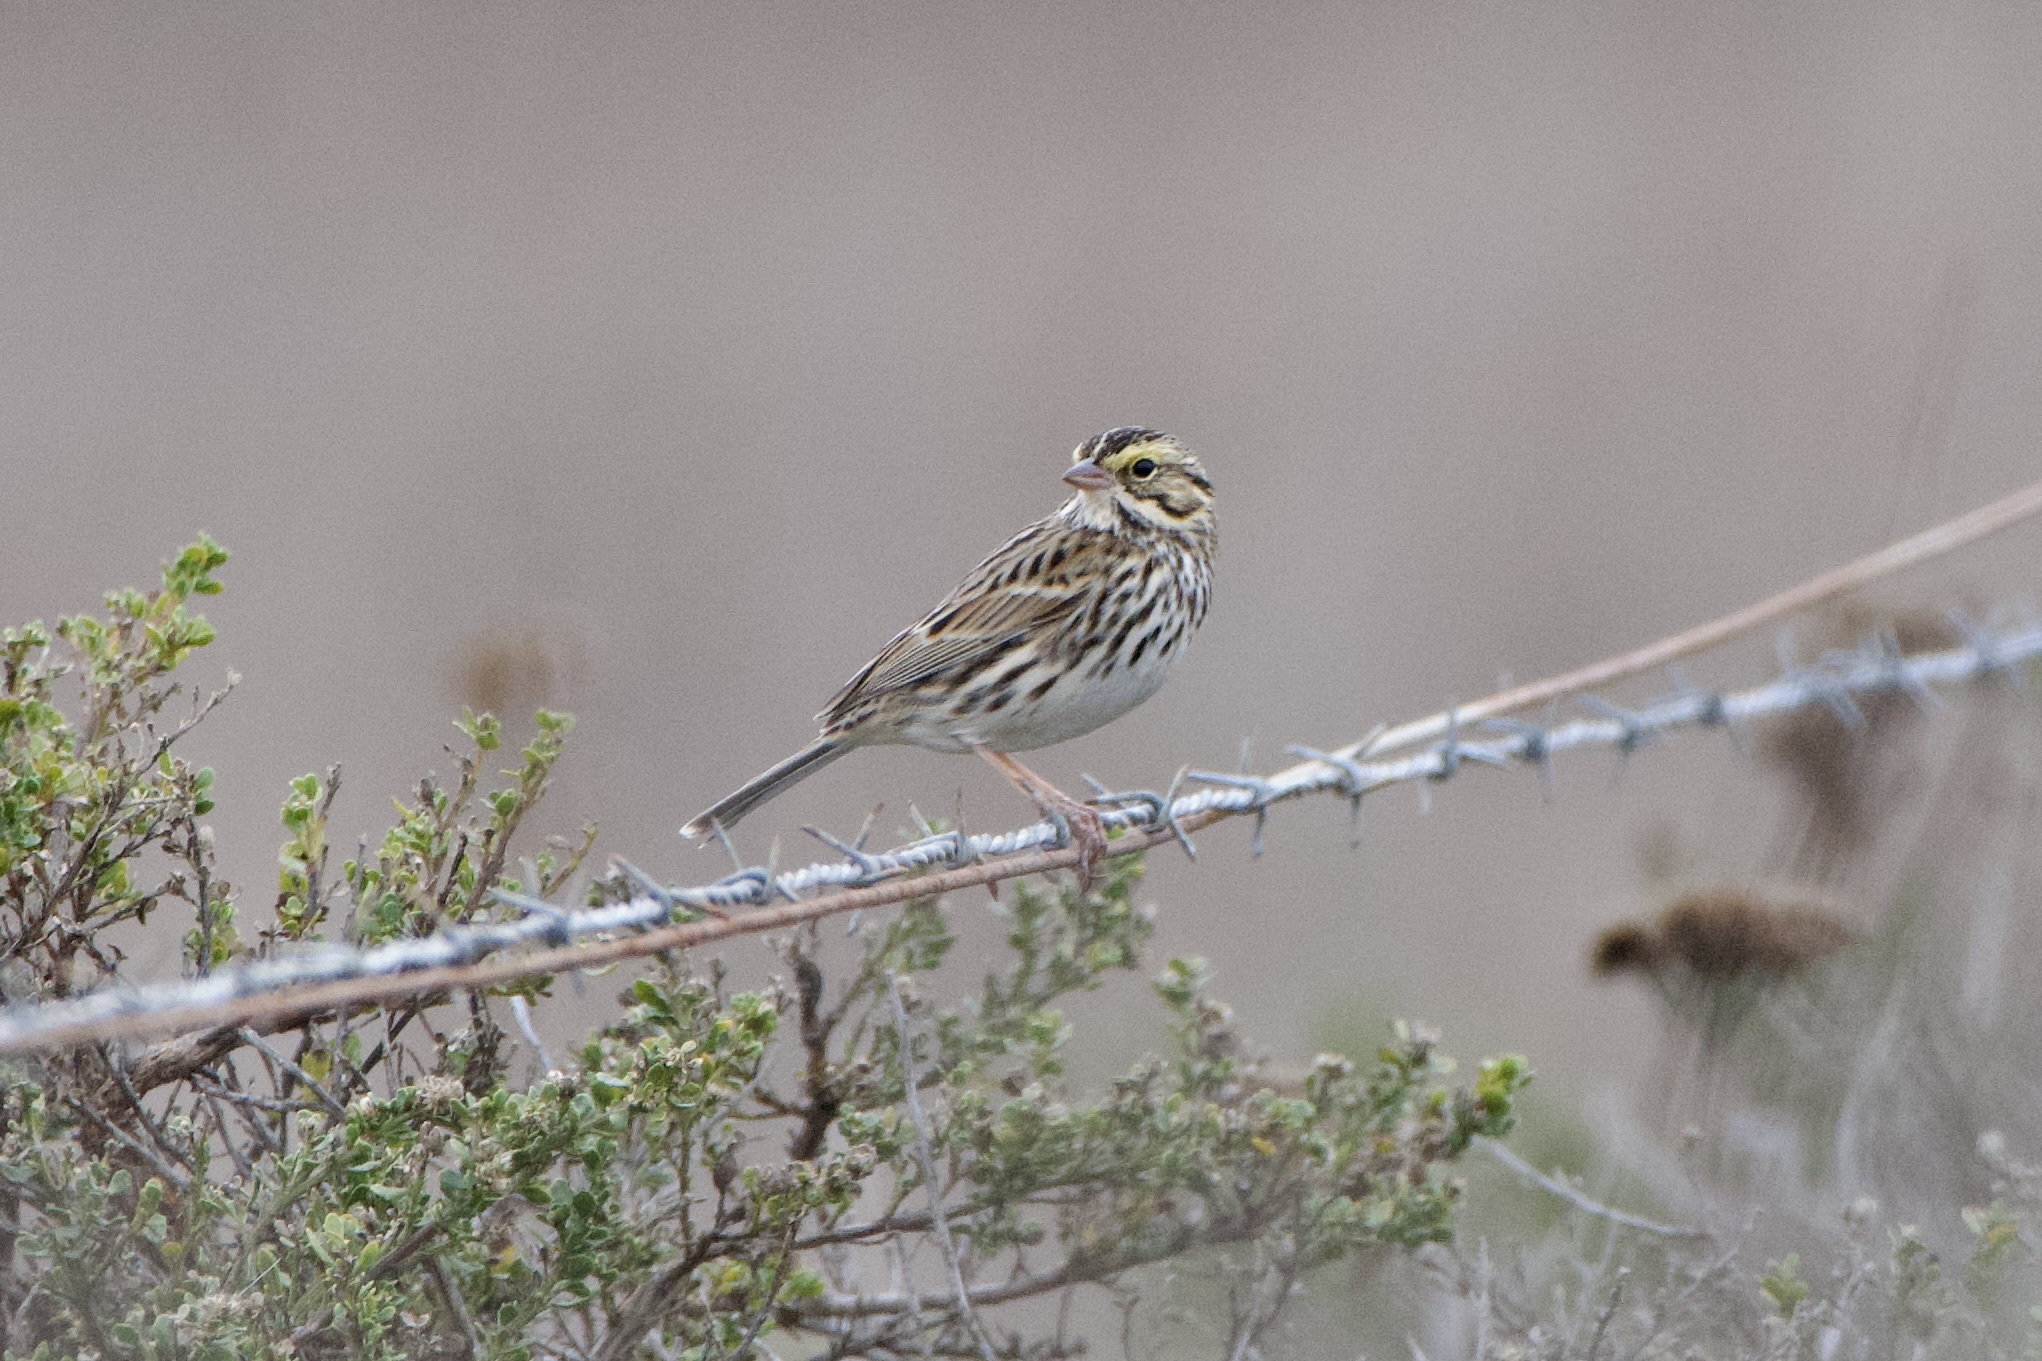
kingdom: Animalia
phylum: Chordata
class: Aves
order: Passeriformes
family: Passerellidae
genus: Passerculus
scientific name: Passerculus sandwichensis
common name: Savannah sparrow
